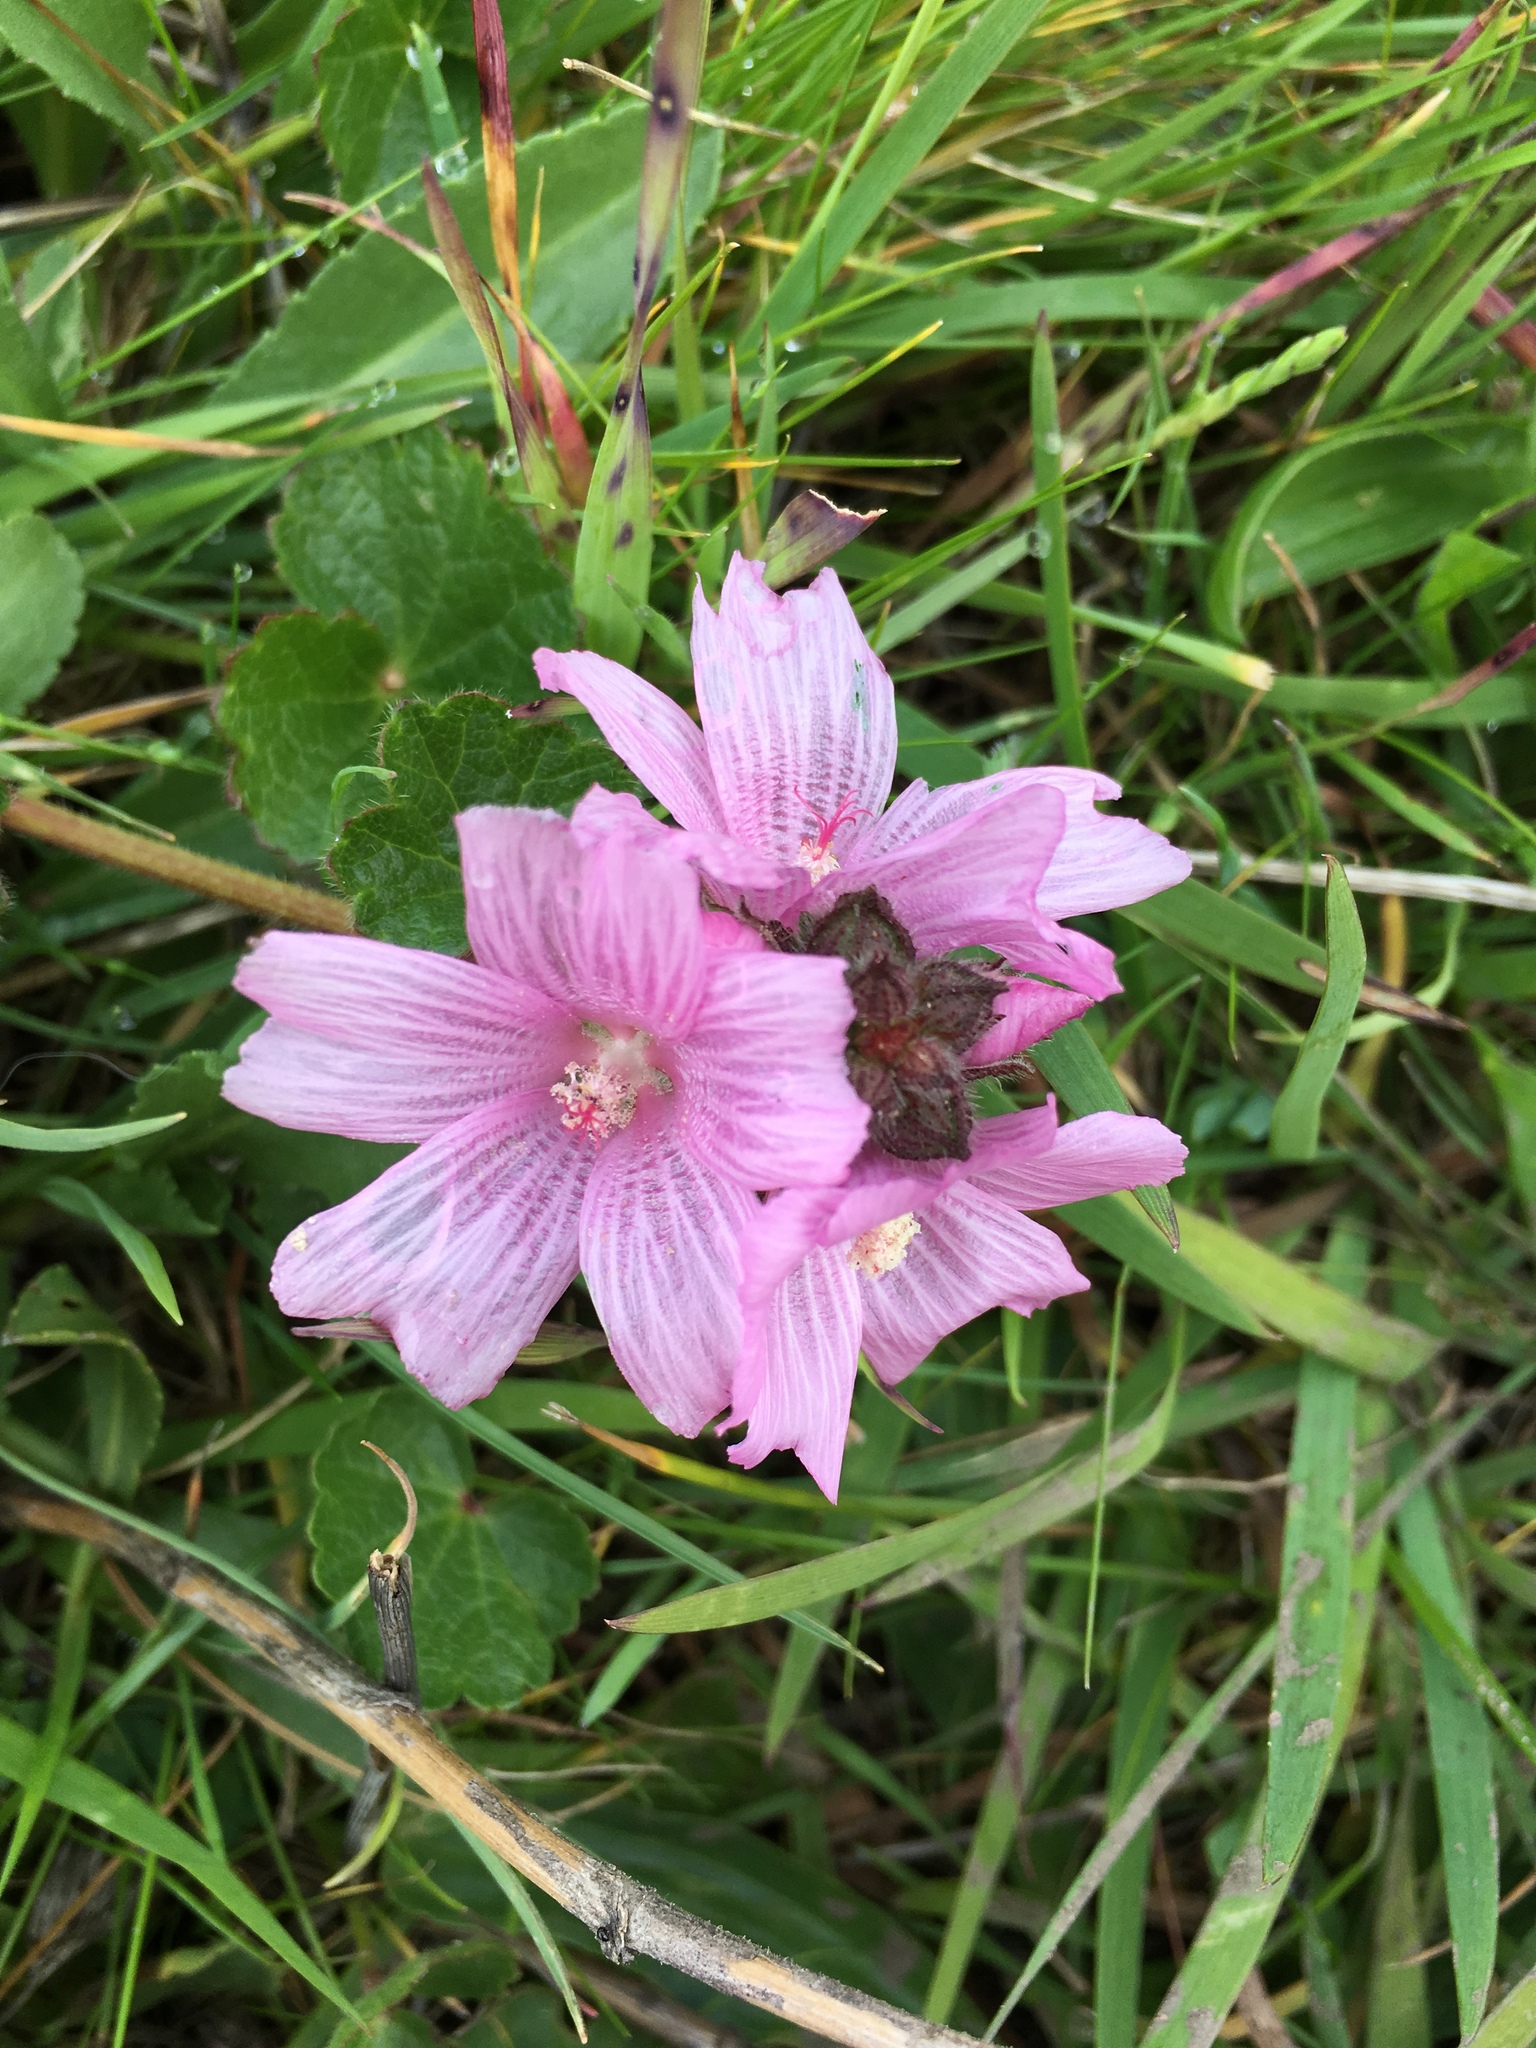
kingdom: Plantae
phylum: Tracheophyta
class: Magnoliopsida
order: Malvales
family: Malvaceae
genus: Sidalcea
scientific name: Sidalcea malviflora
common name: Greek mallow
